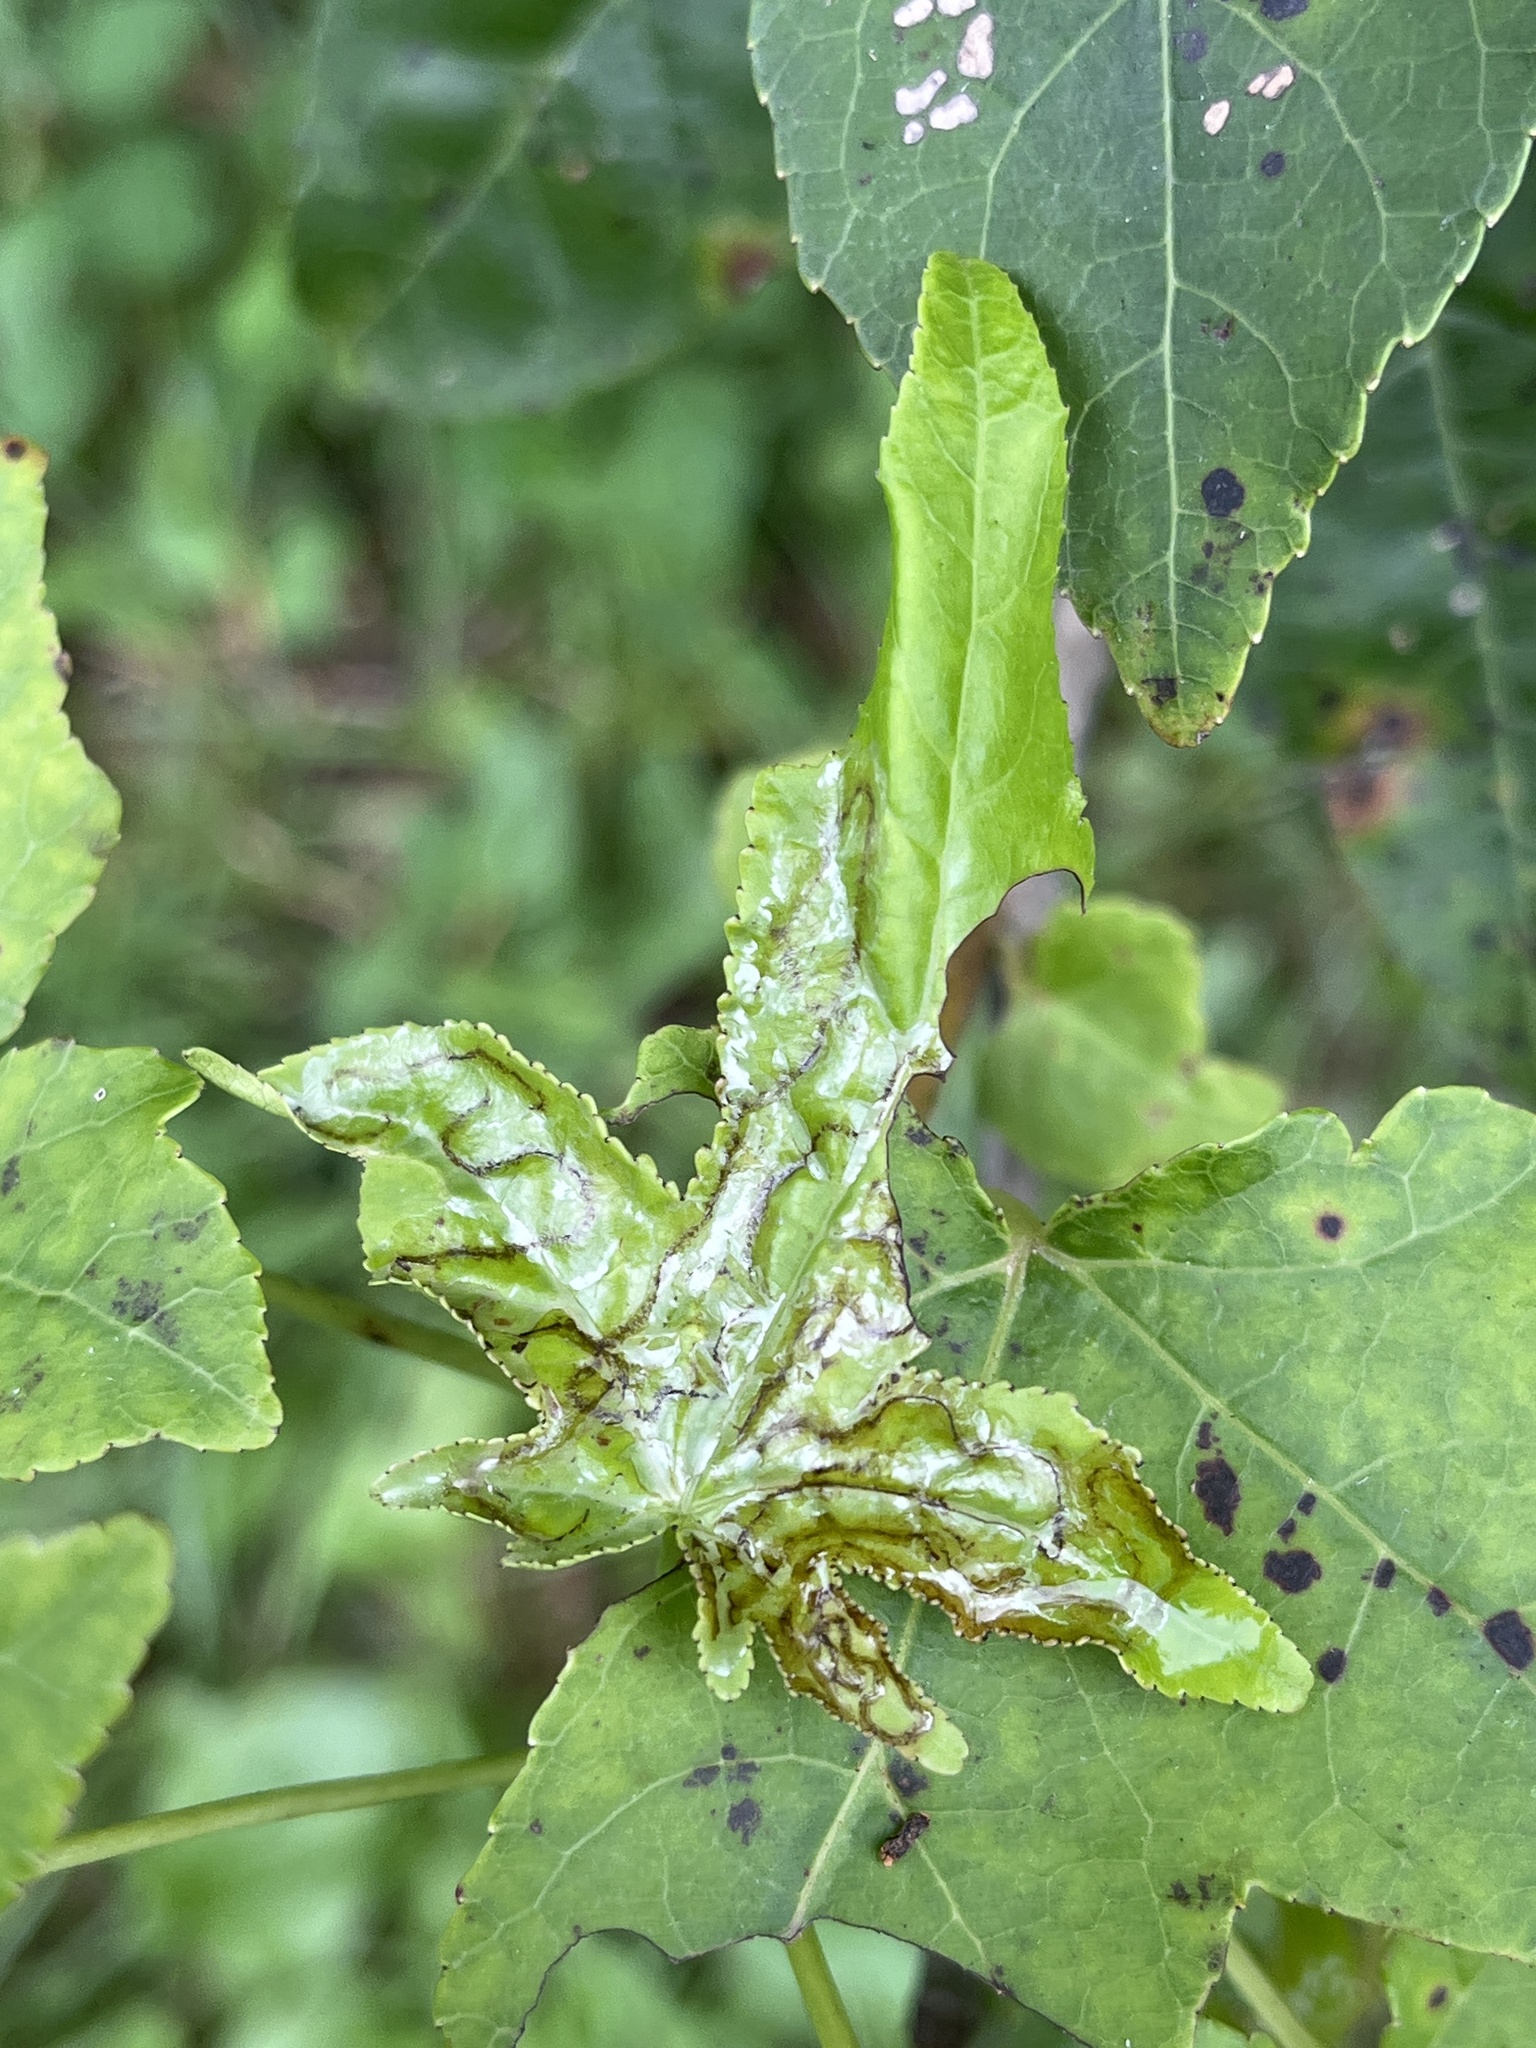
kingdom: Animalia
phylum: Arthropoda
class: Insecta
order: Lepidoptera
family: Gracillariidae
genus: Phyllocnistis
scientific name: Phyllocnistis liquidambarisella
